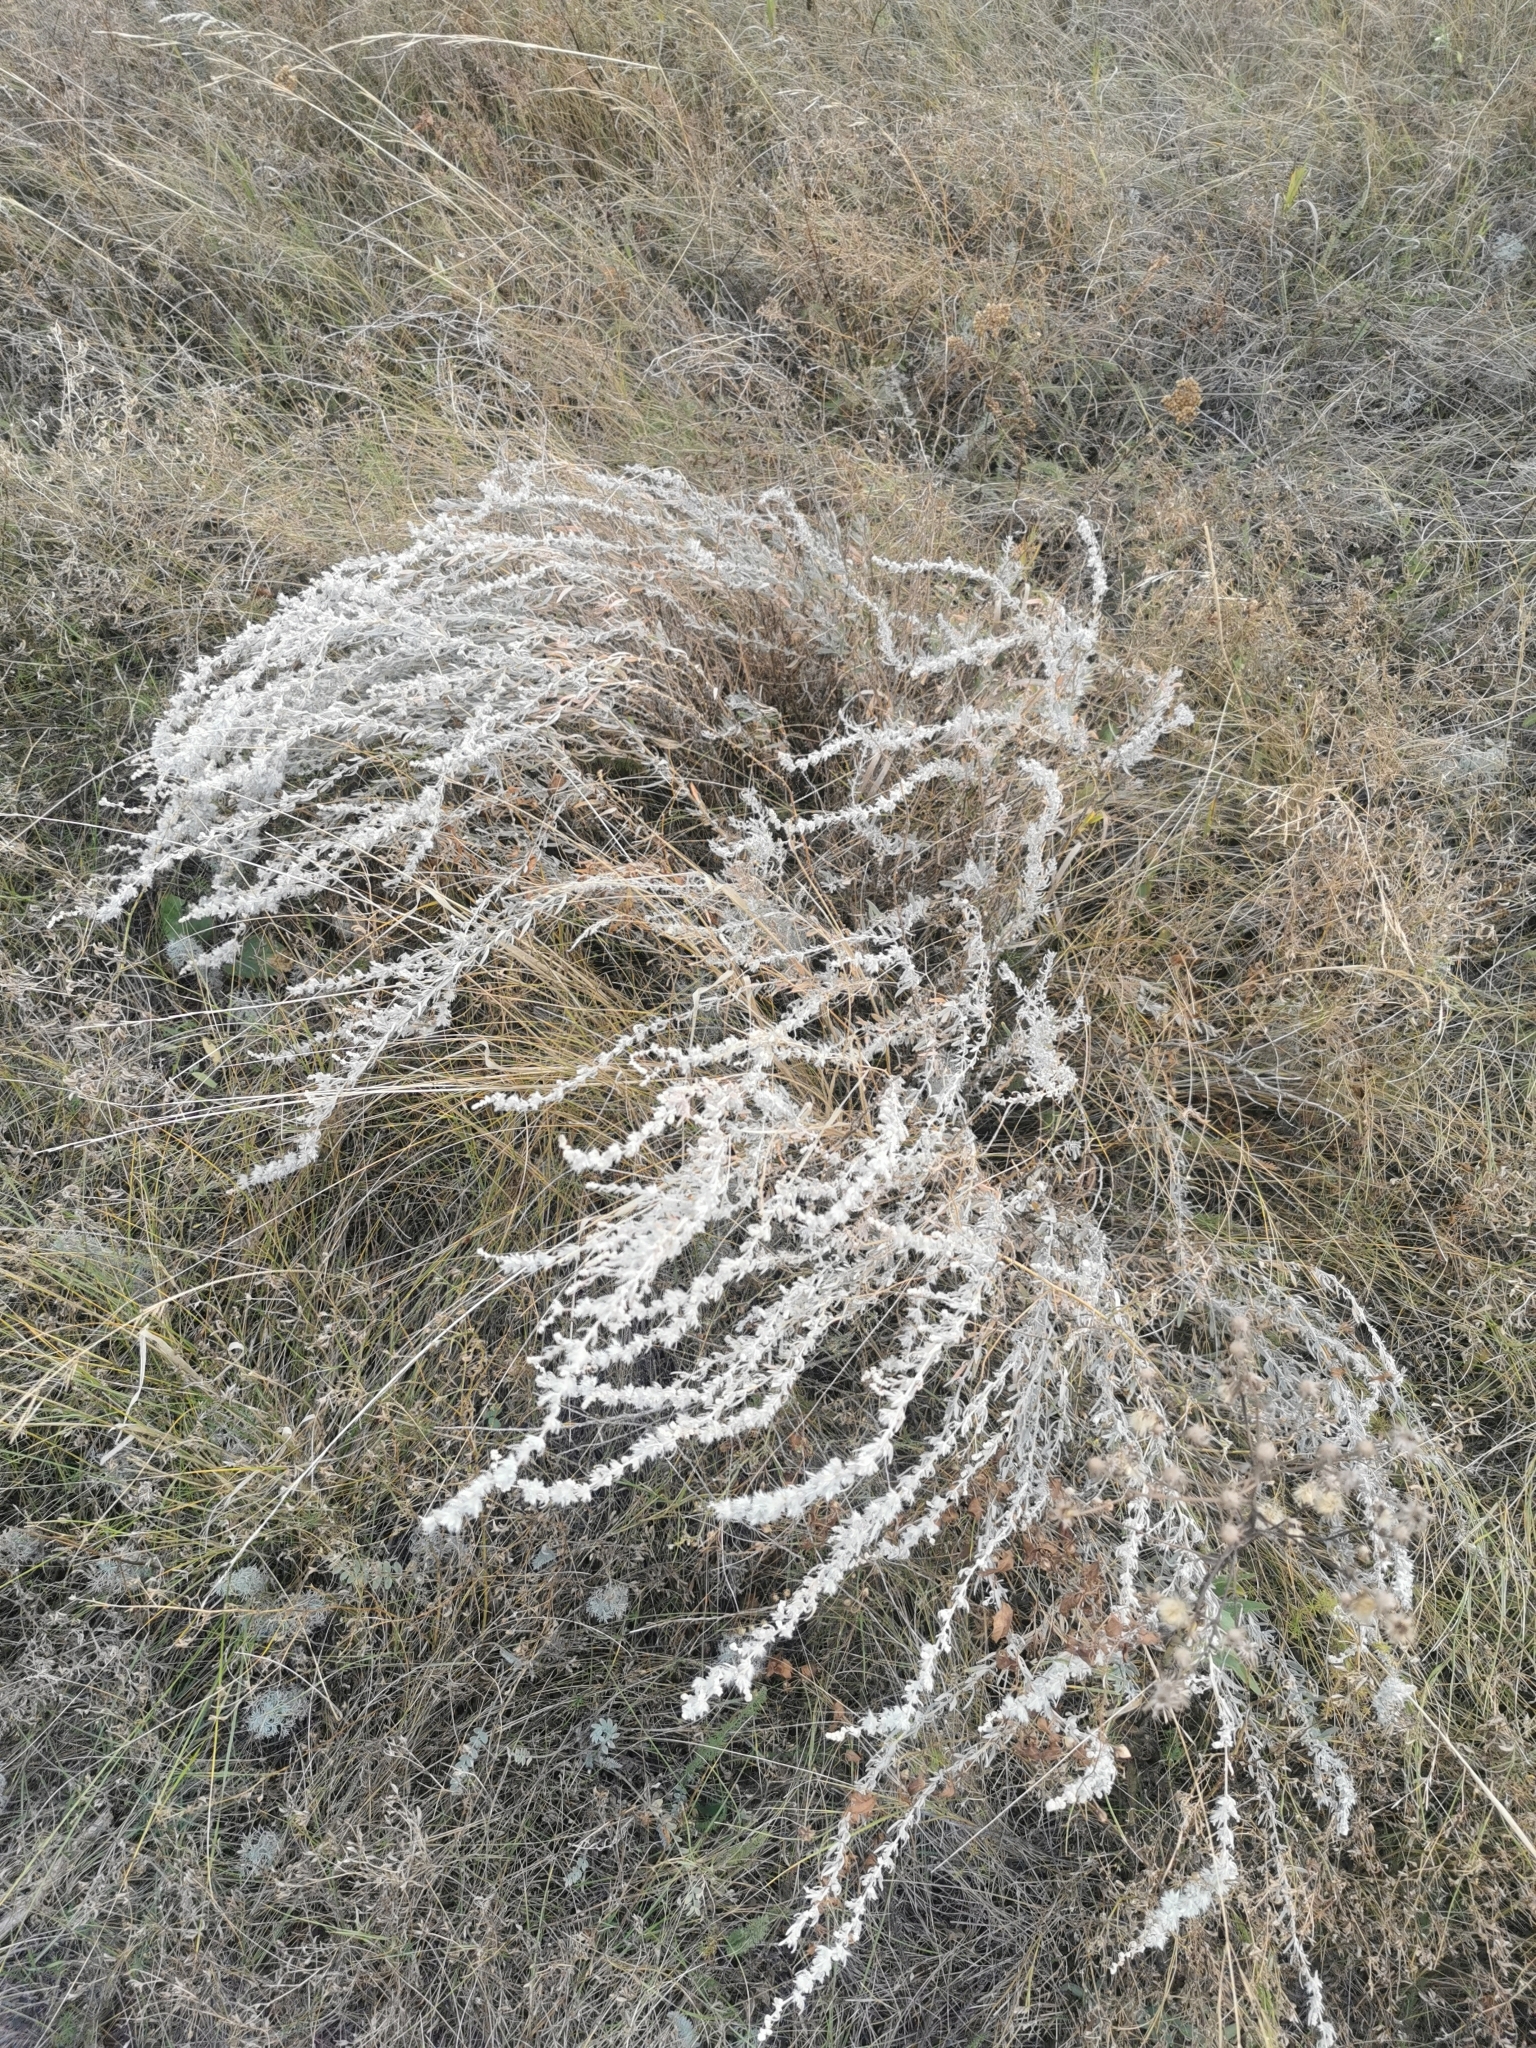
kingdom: Plantae
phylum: Tracheophyta
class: Magnoliopsida
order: Caryophyllales
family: Amaranthaceae
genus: Krascheninnikovia
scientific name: Krascheninnikovia ceratoides
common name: Pamirian winterfat
